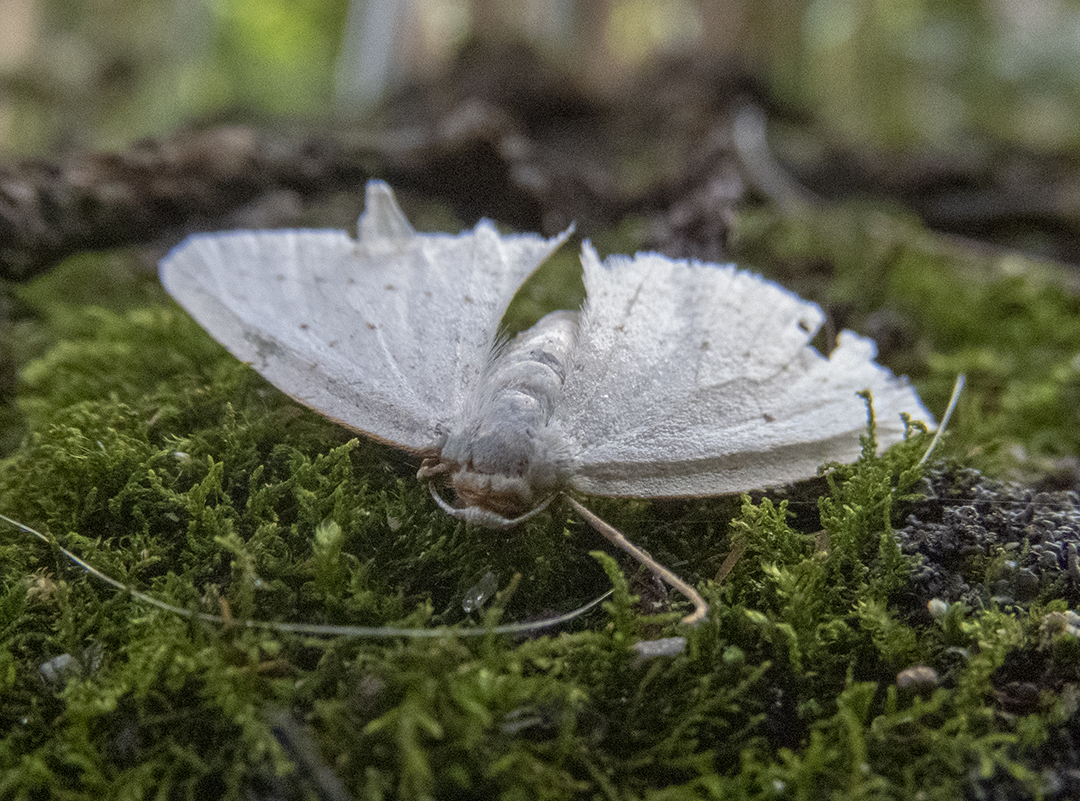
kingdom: Animalia
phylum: Arthropoda
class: Insecta
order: Lepidoptera
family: Geometridae
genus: Orthoclydon
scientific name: Orthoclydon praefectata
